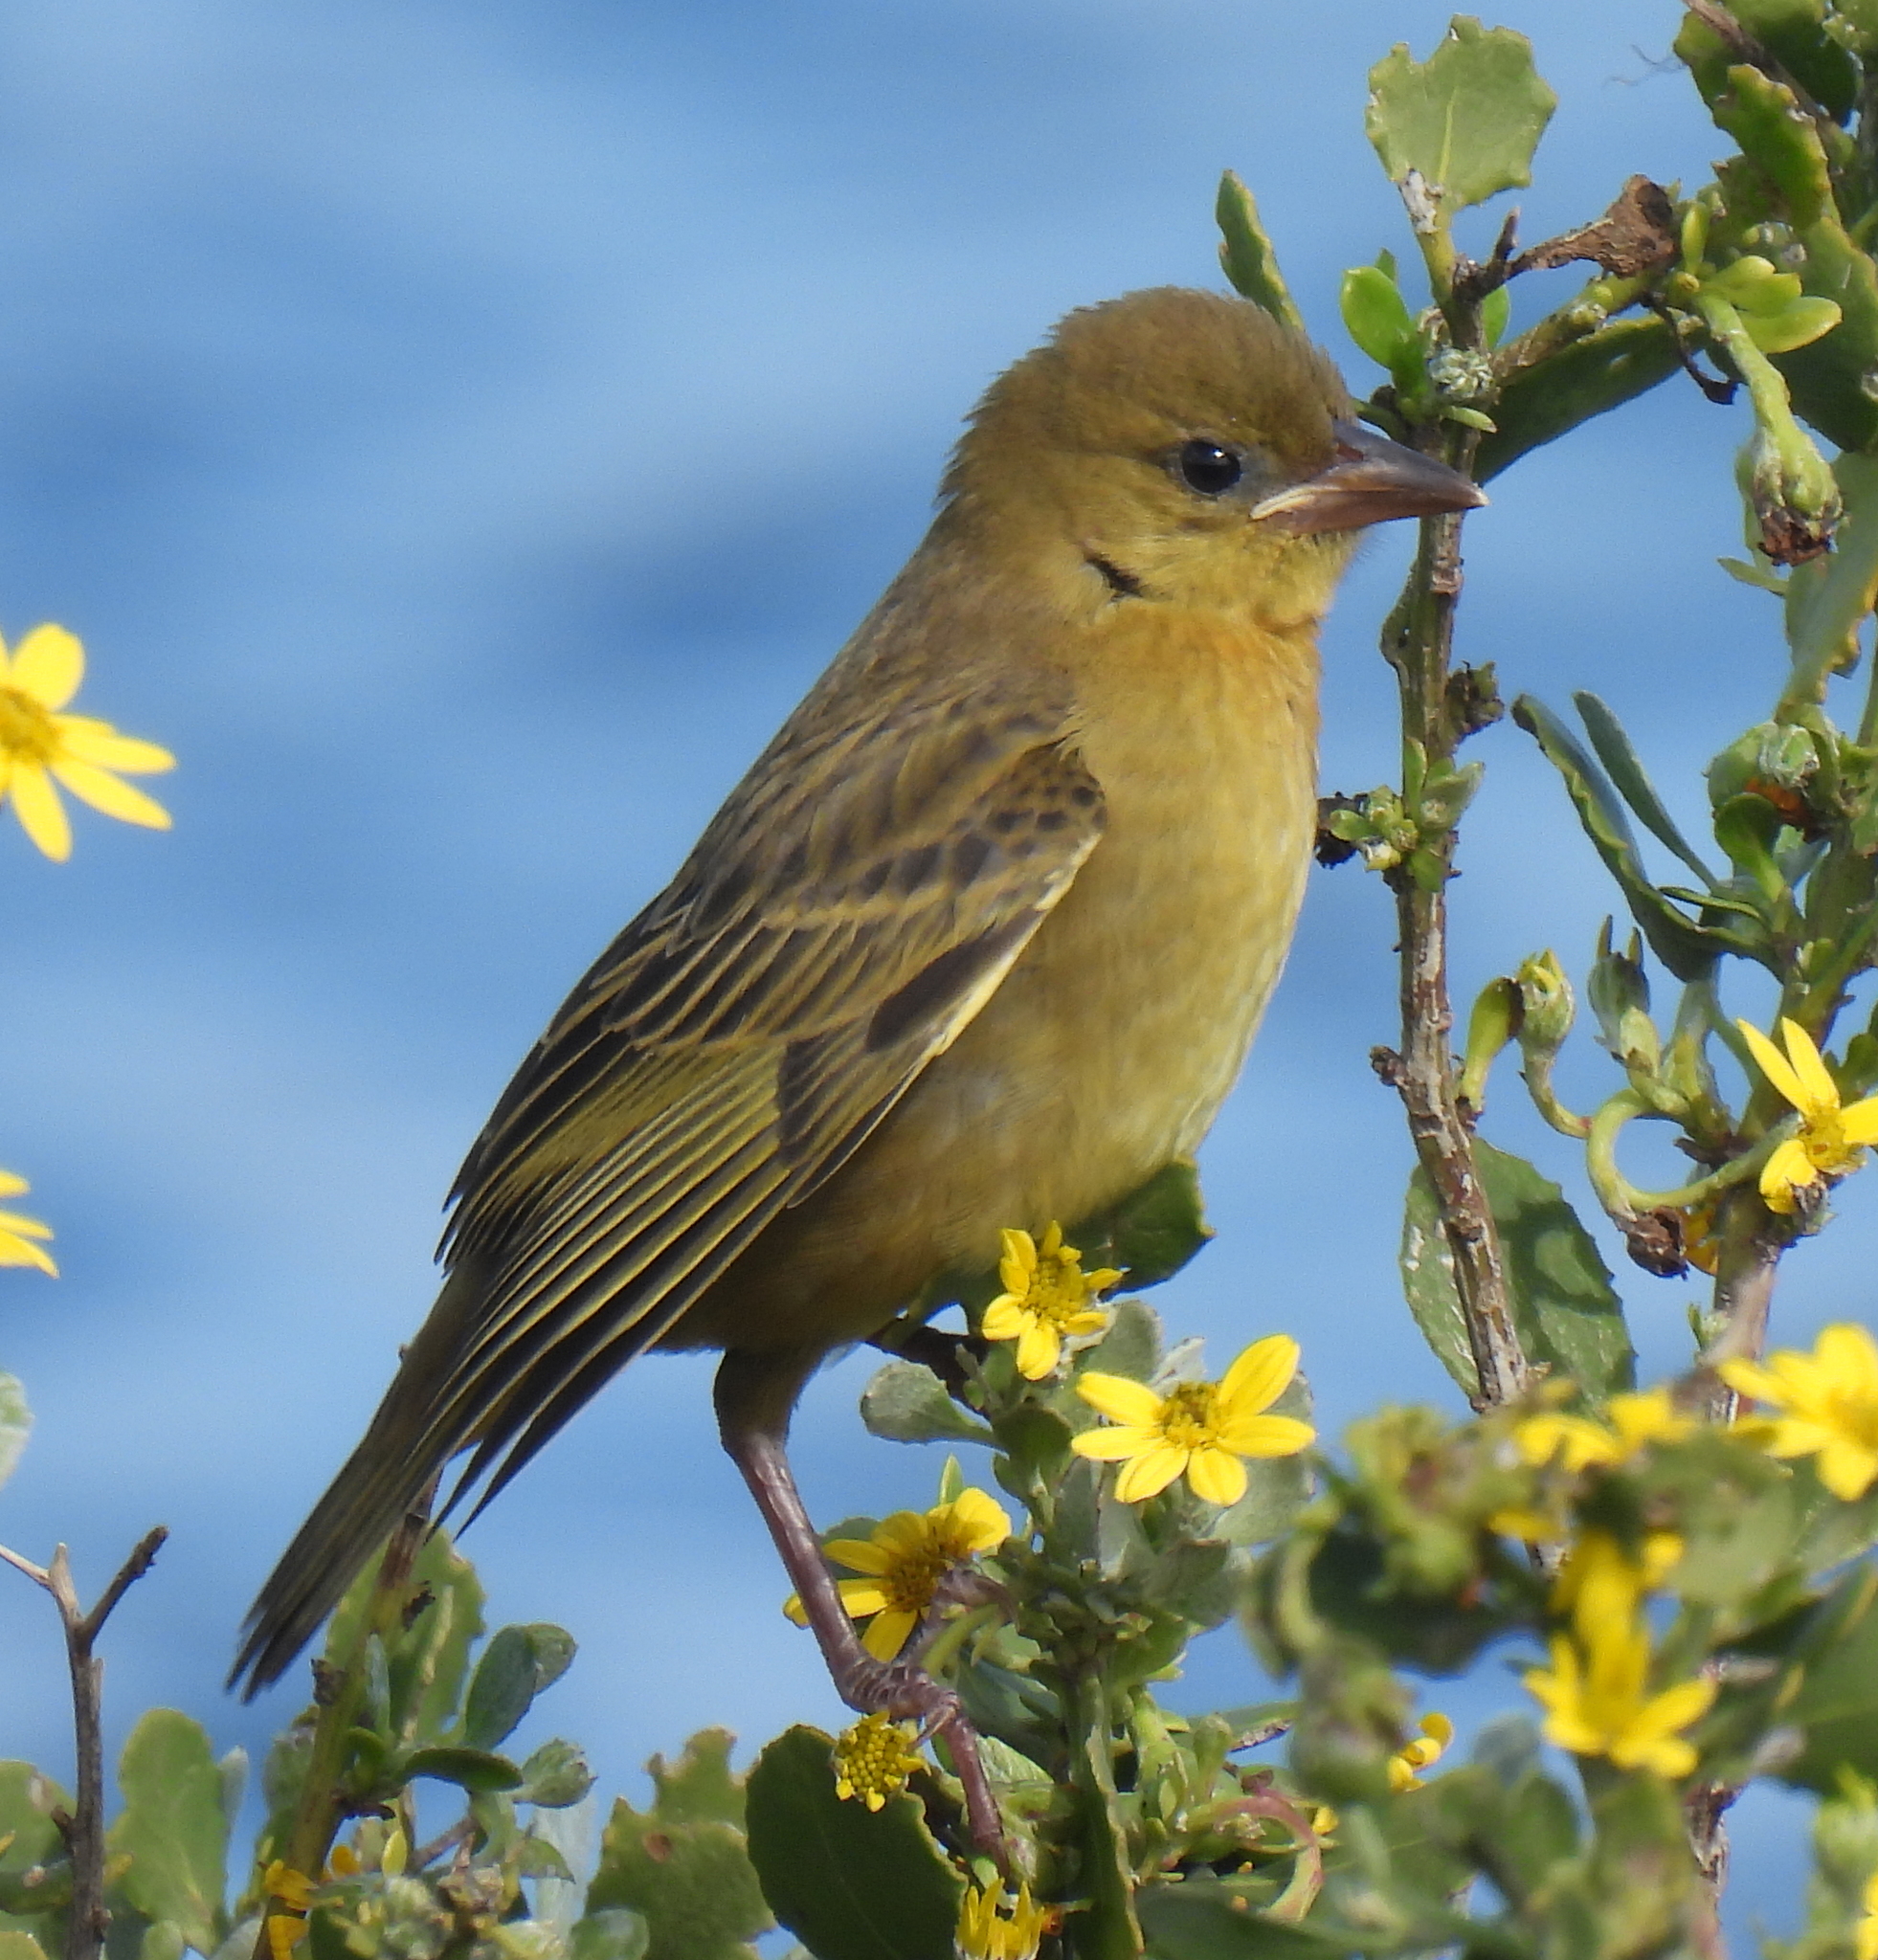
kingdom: Animalia
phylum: Chordata
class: Aves
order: Passeriformes
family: Ploceidae
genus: Ploceus
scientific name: Ploceus capensis
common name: Cape weaver
